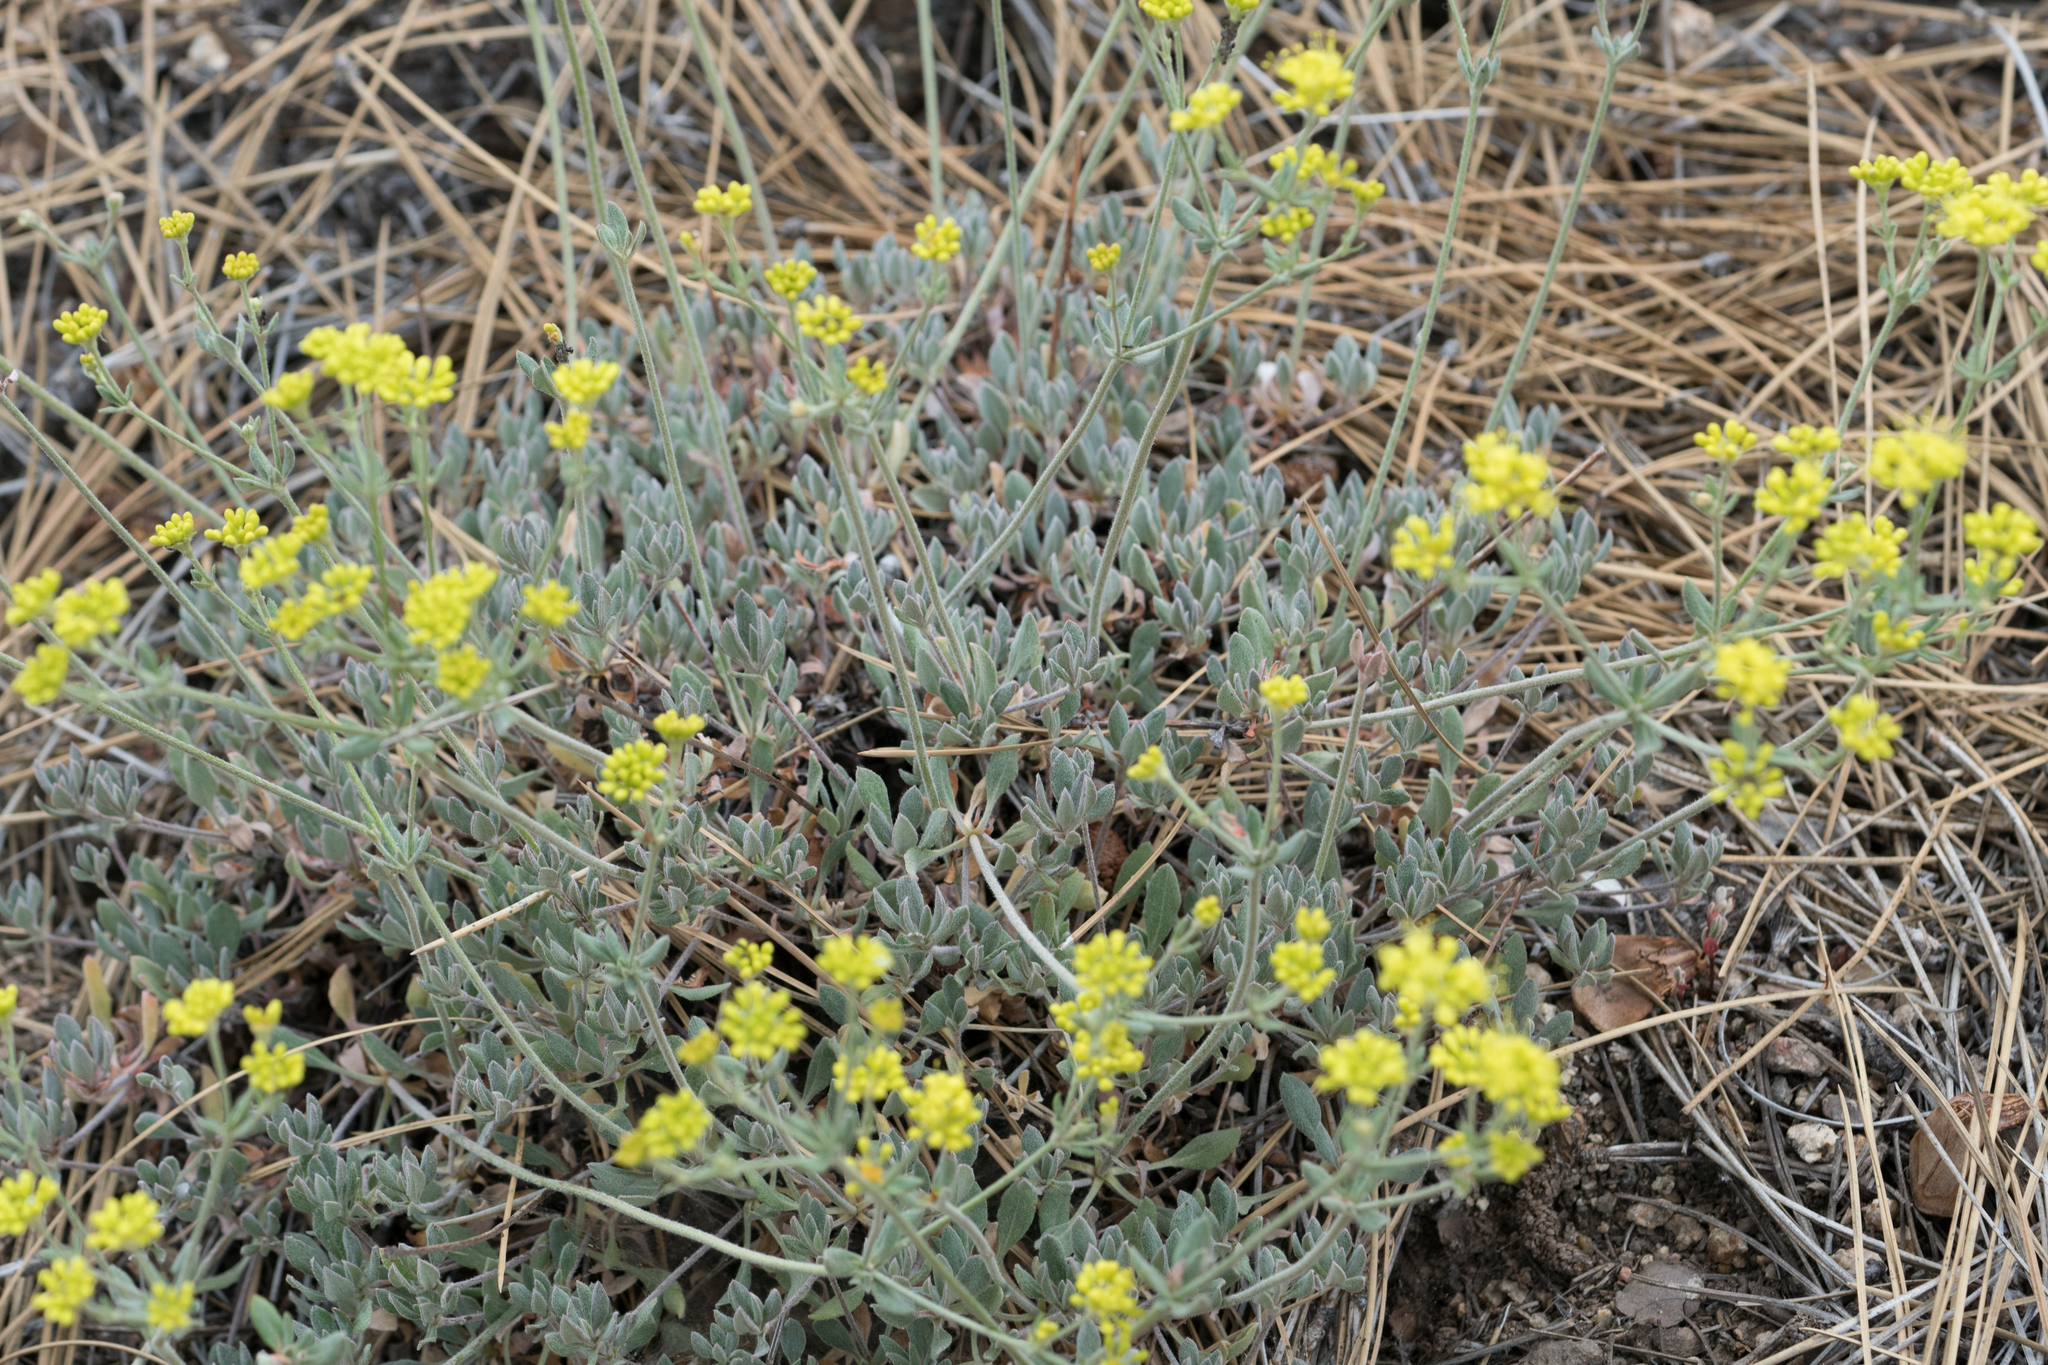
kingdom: Plantae
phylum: Tracheophyta
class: Magnoliopsida
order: Caryophyllales
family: Polygonaceae
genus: Eriogonum
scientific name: Eriogonum umbellatum
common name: Sulfur-buckwheat
